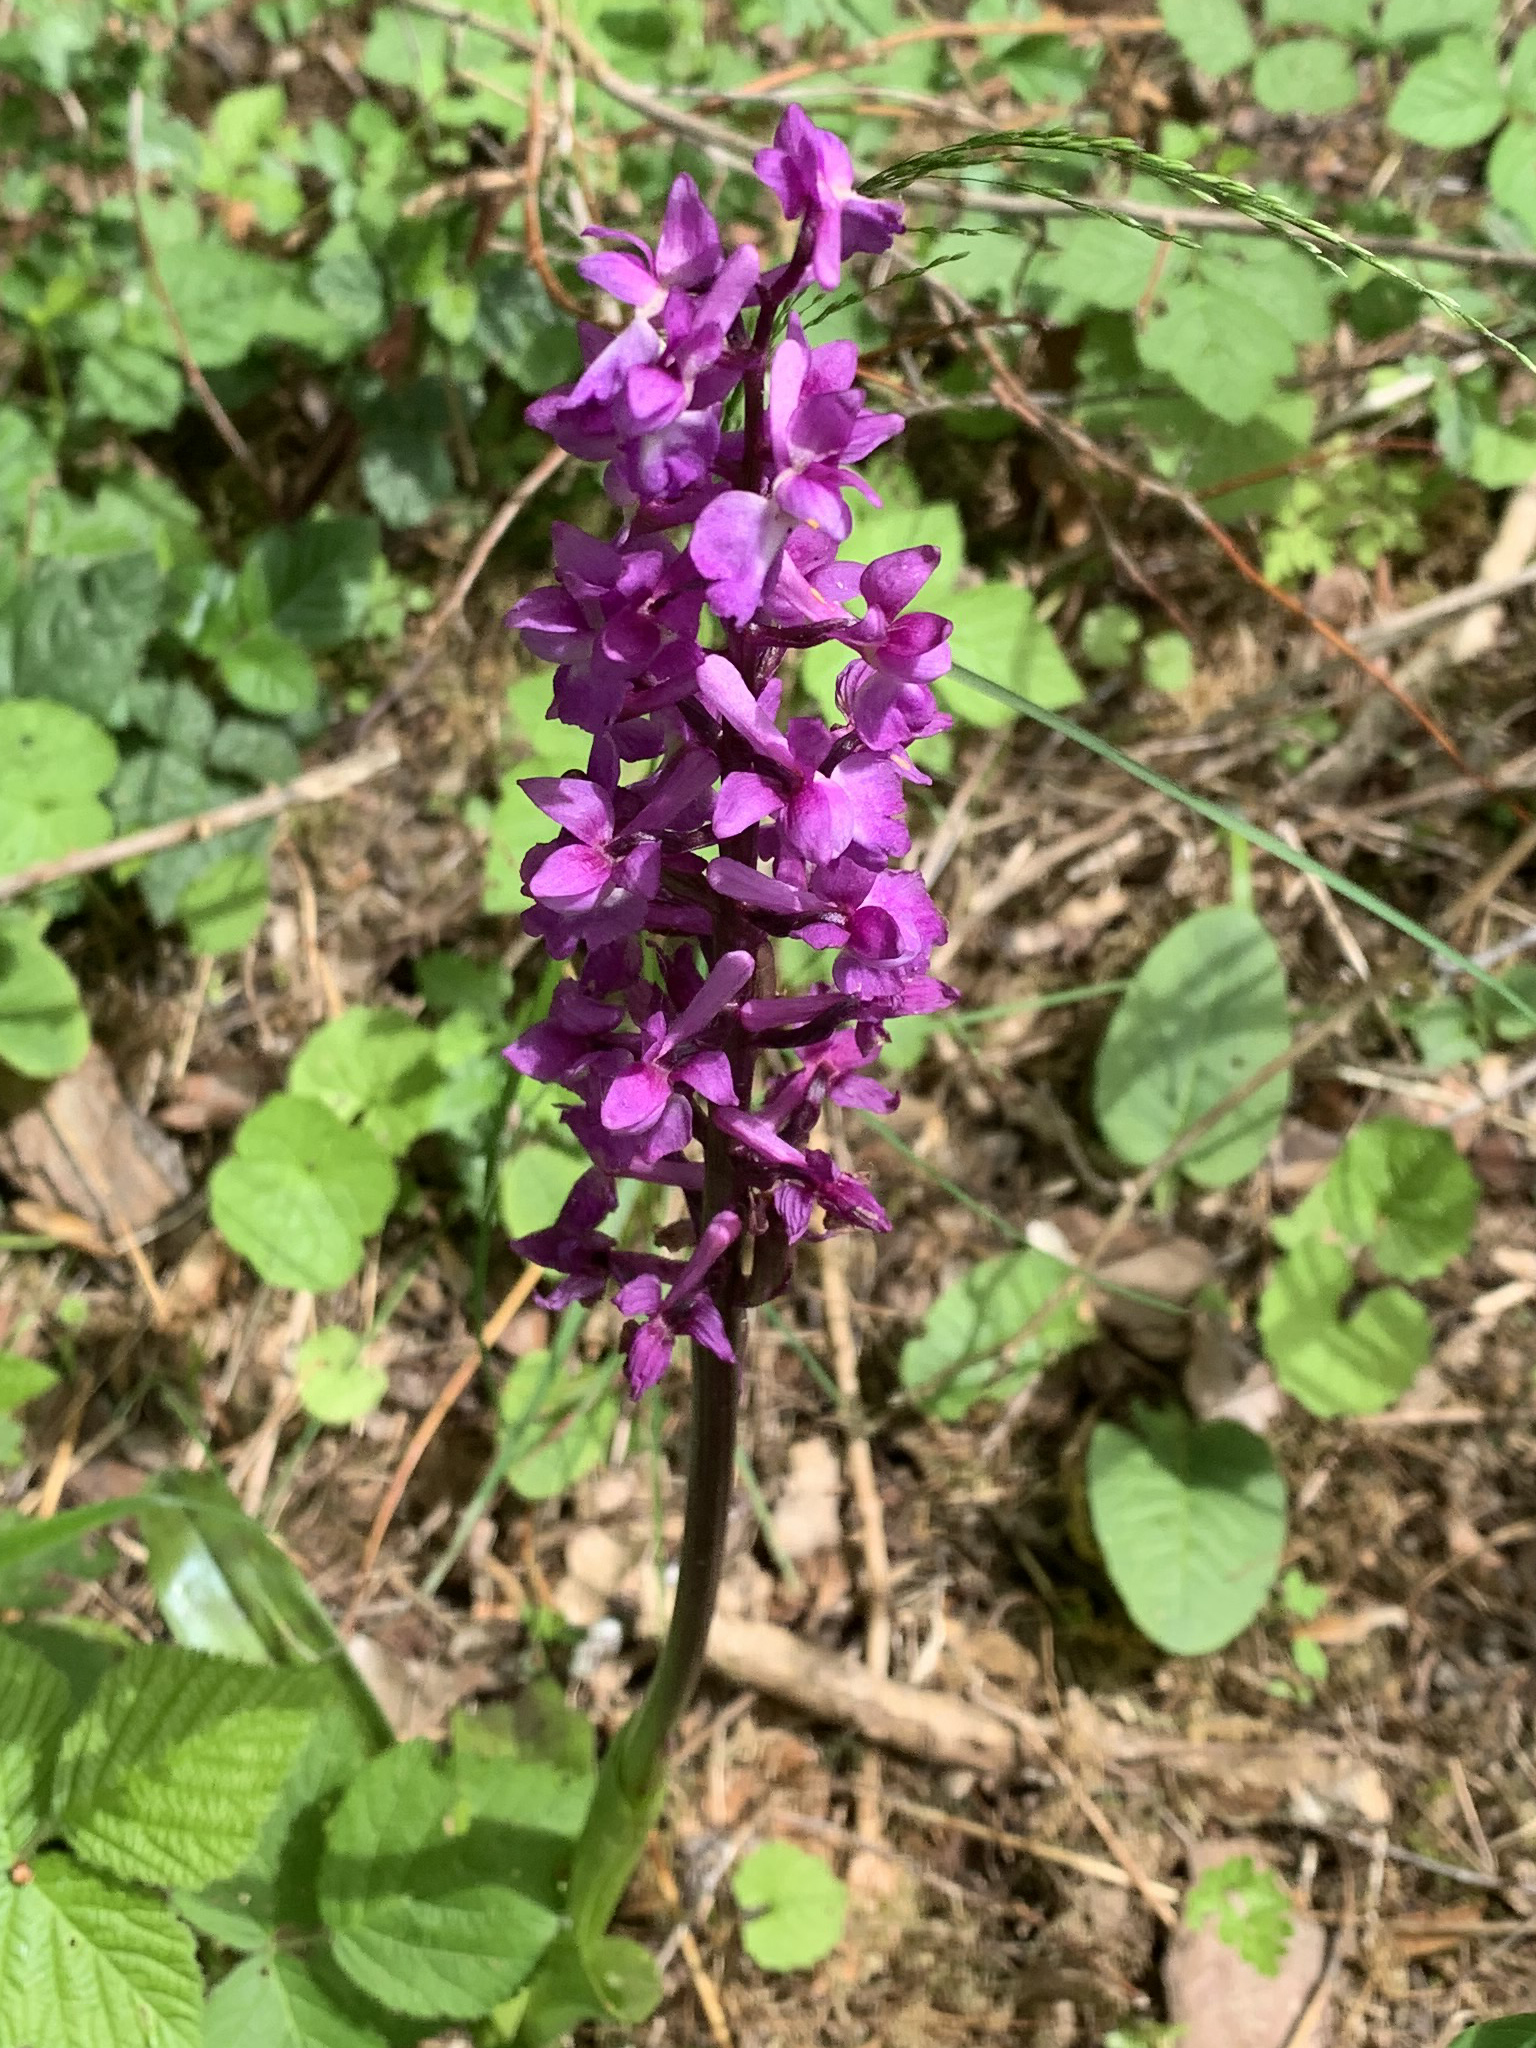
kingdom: Plantae
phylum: Tracheophyta
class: Liliopsida
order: Asparagales
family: Orchidaceae
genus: Orchis
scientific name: Orchis mascula
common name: Early-purple orchid
